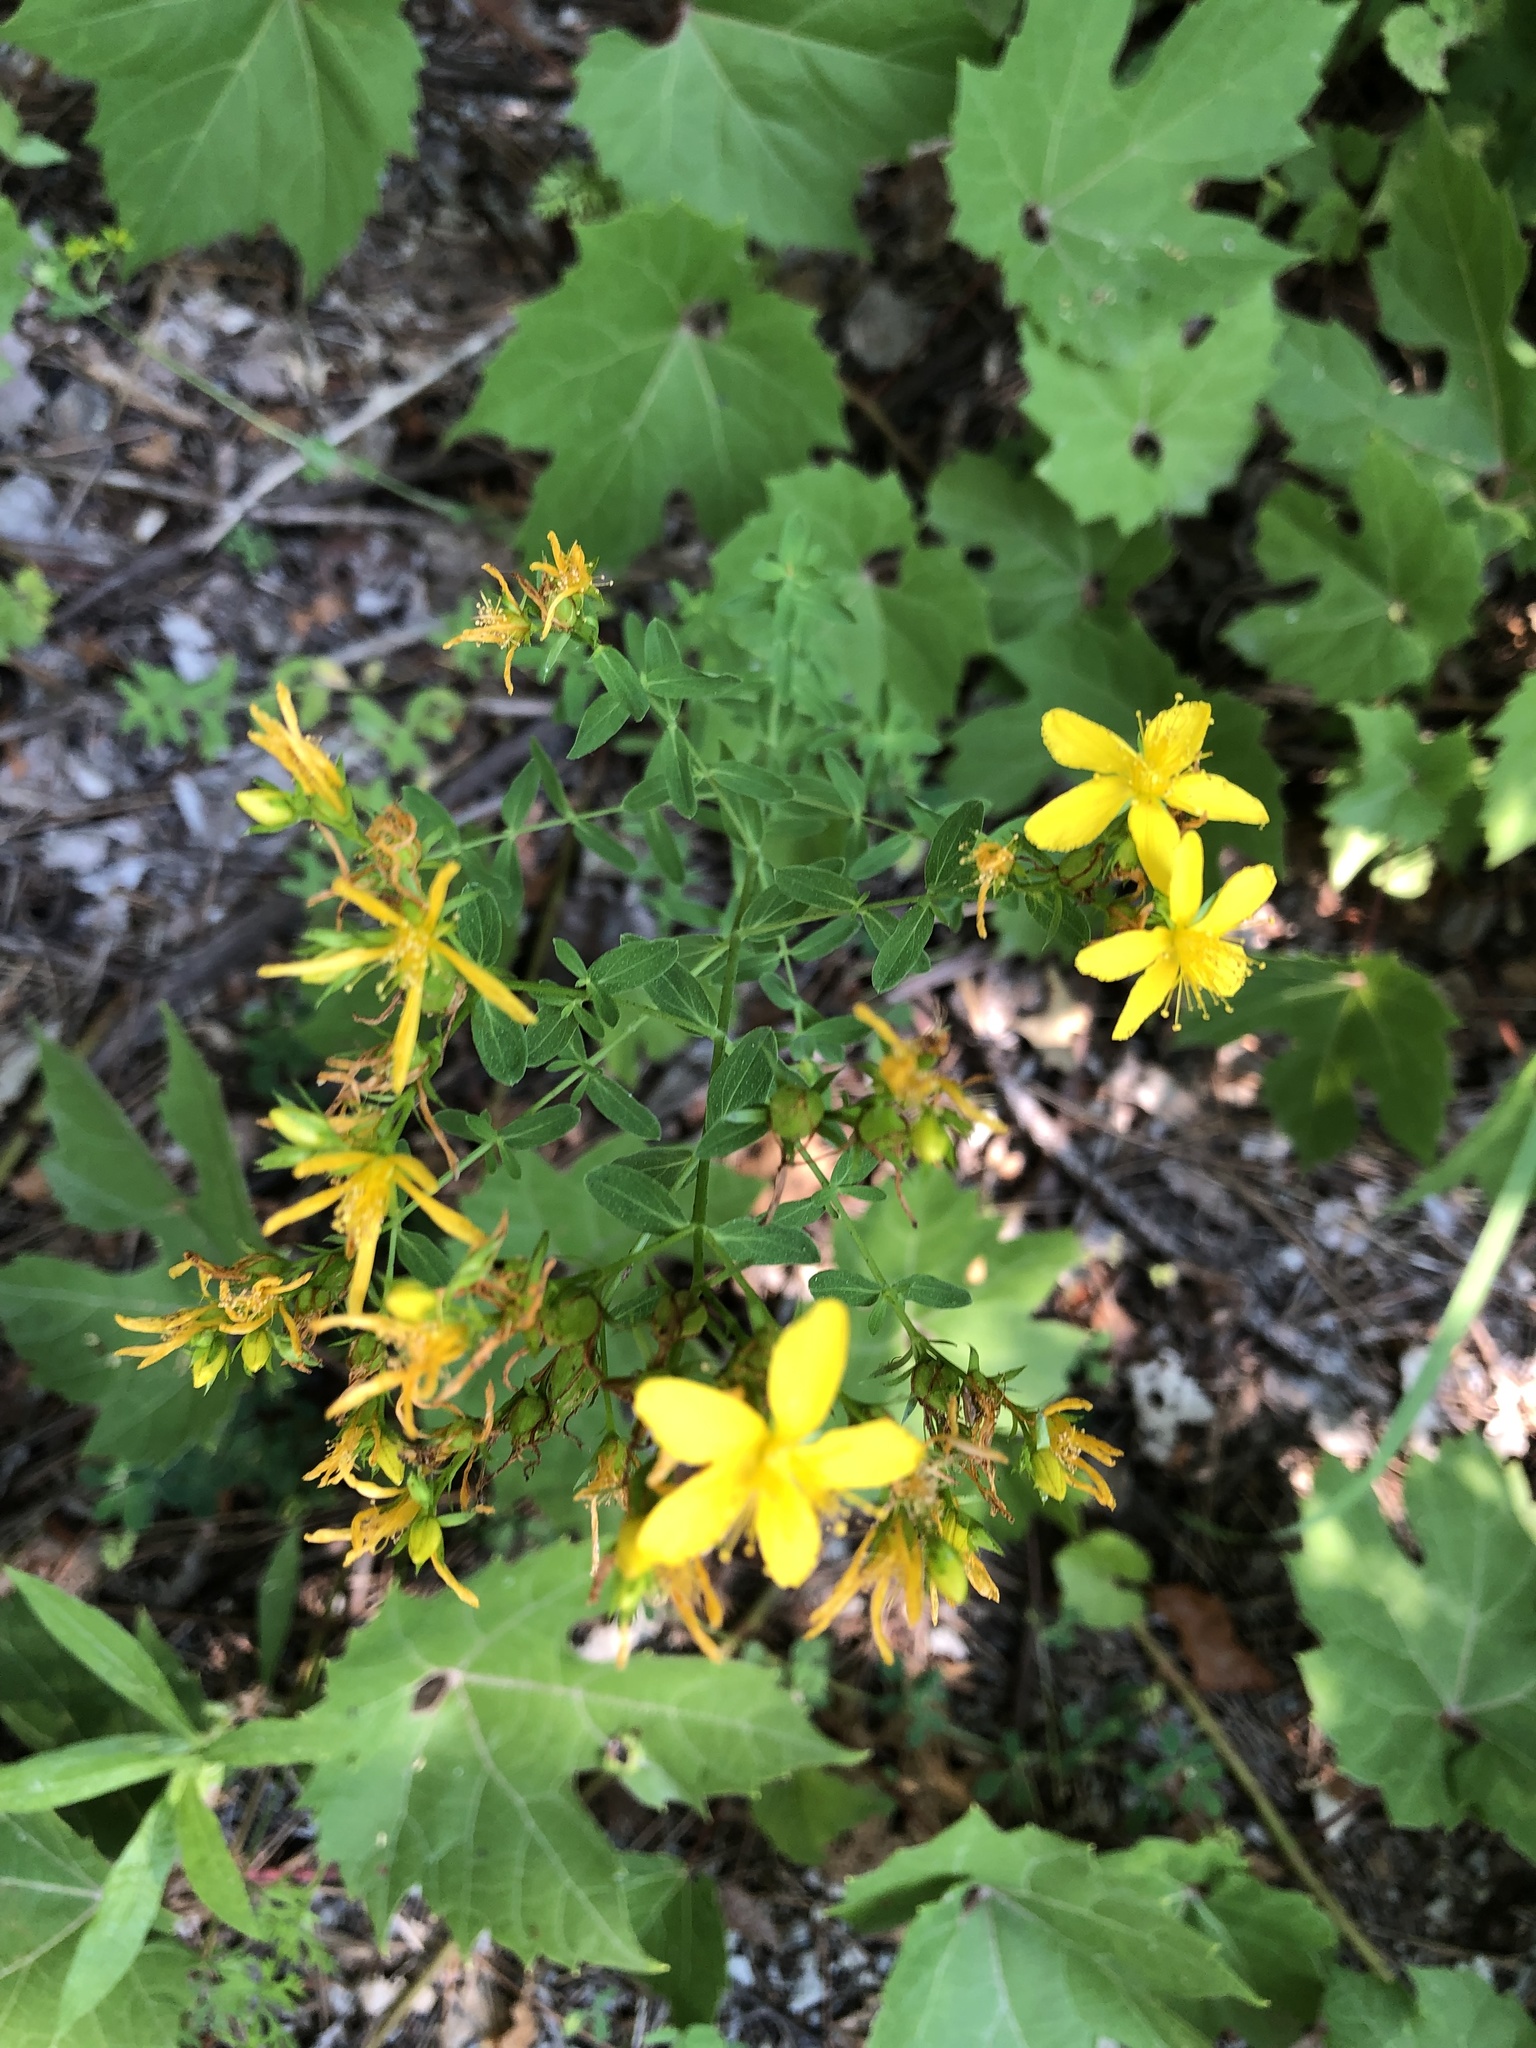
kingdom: Plantae
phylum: Tracheophyta
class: Magnoliopsida
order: Malpighiales
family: Hypericaceae
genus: Hypericum
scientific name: Hypericum perforatum
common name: Common st. johnswort
